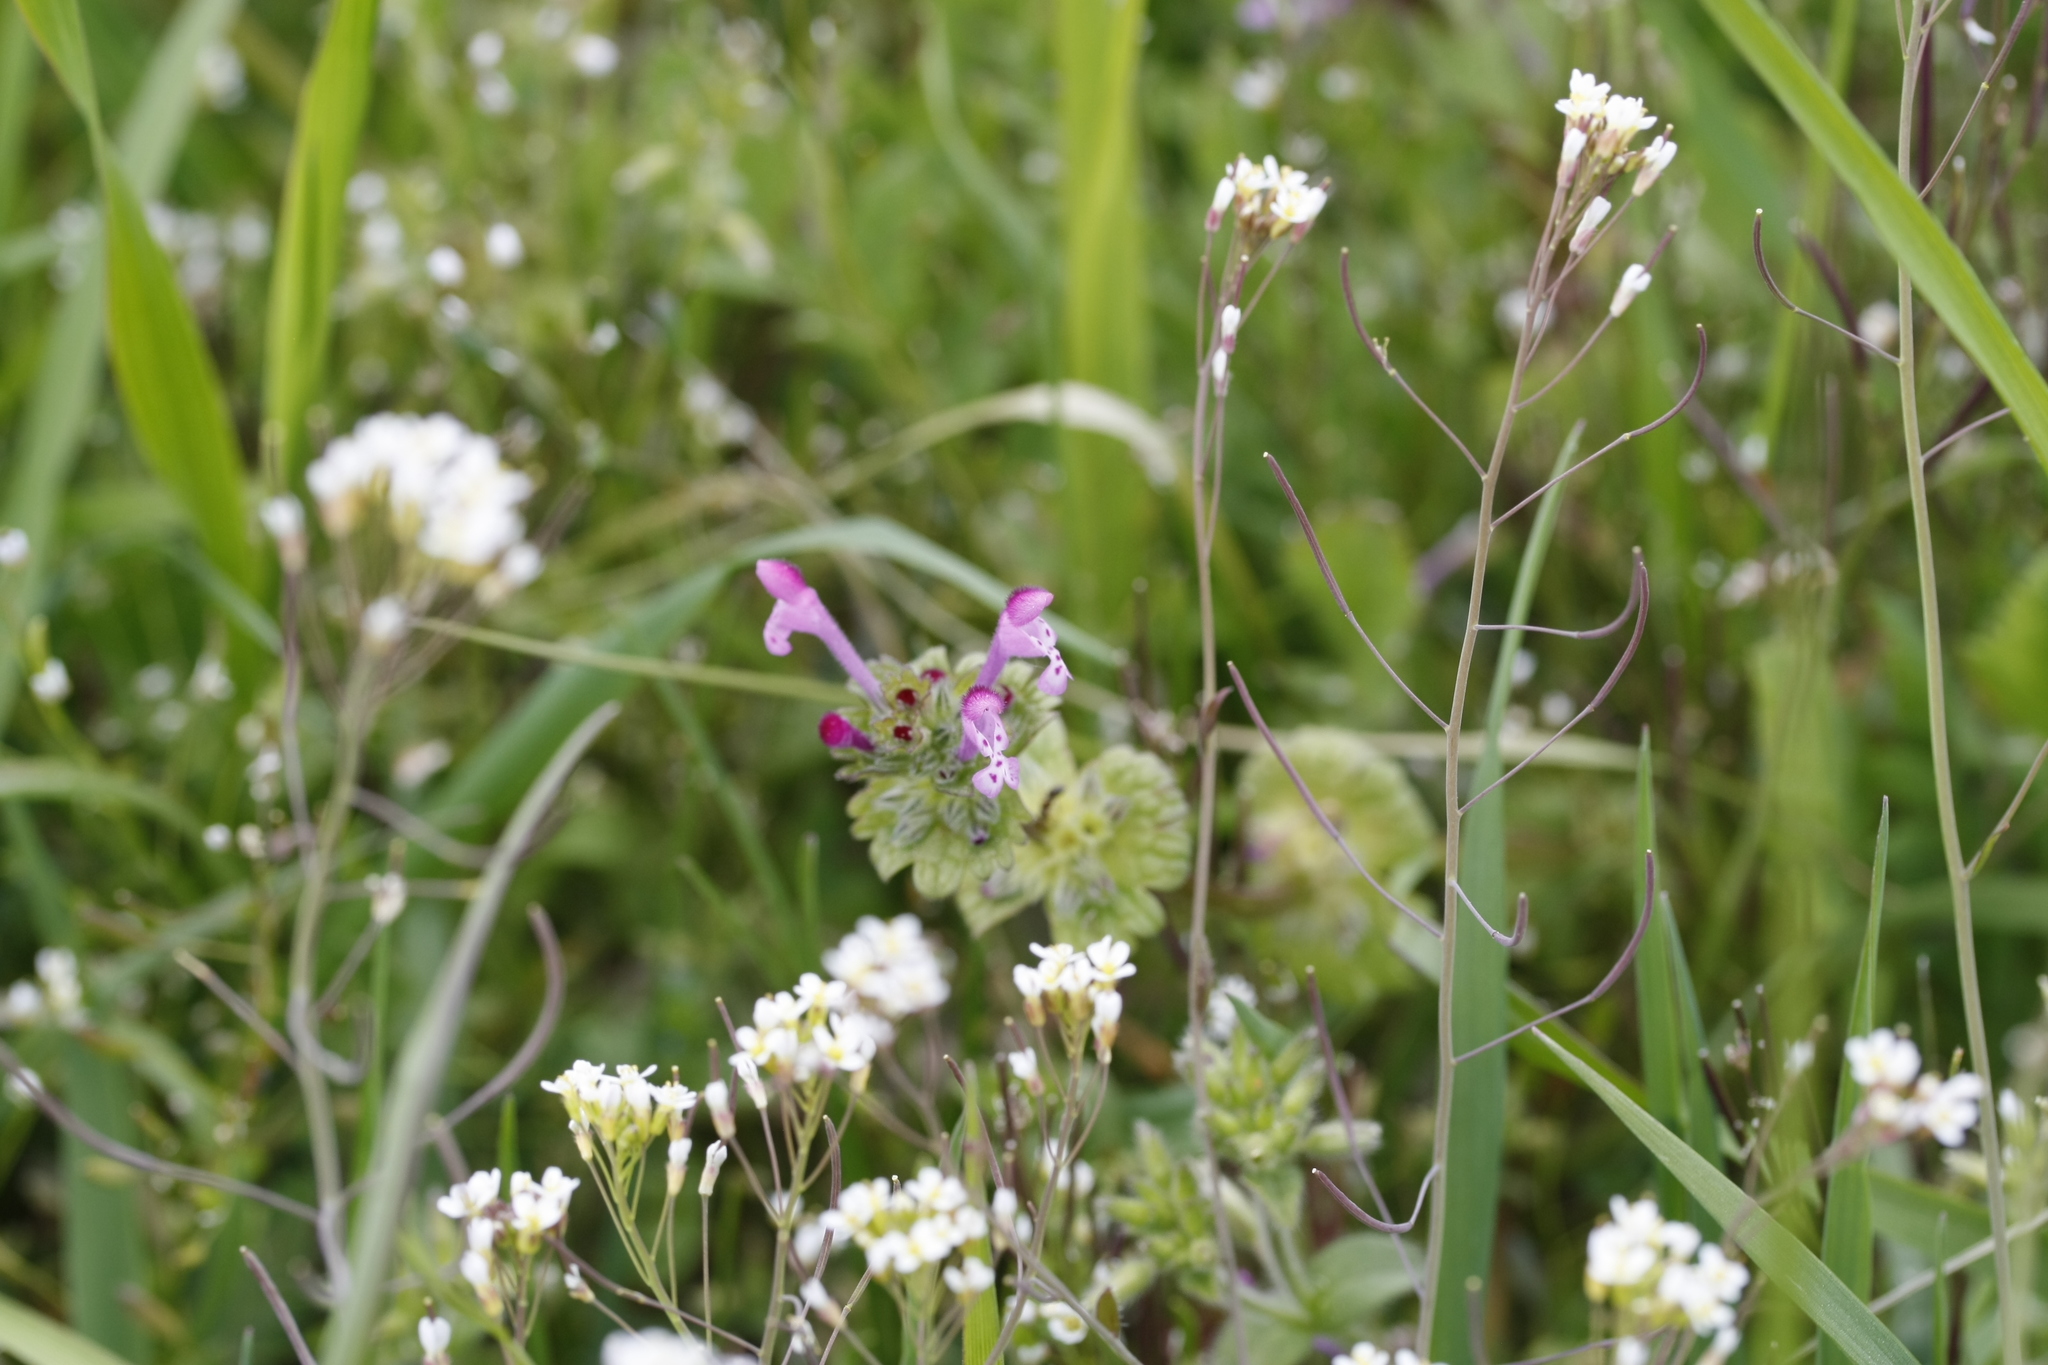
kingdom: Plantae
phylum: Tracheophyta
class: Magnoliopsida
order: Lamiales
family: Lamiaceae
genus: Lamium
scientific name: Lamium amplexicaule
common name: Henbit dead-nettle
